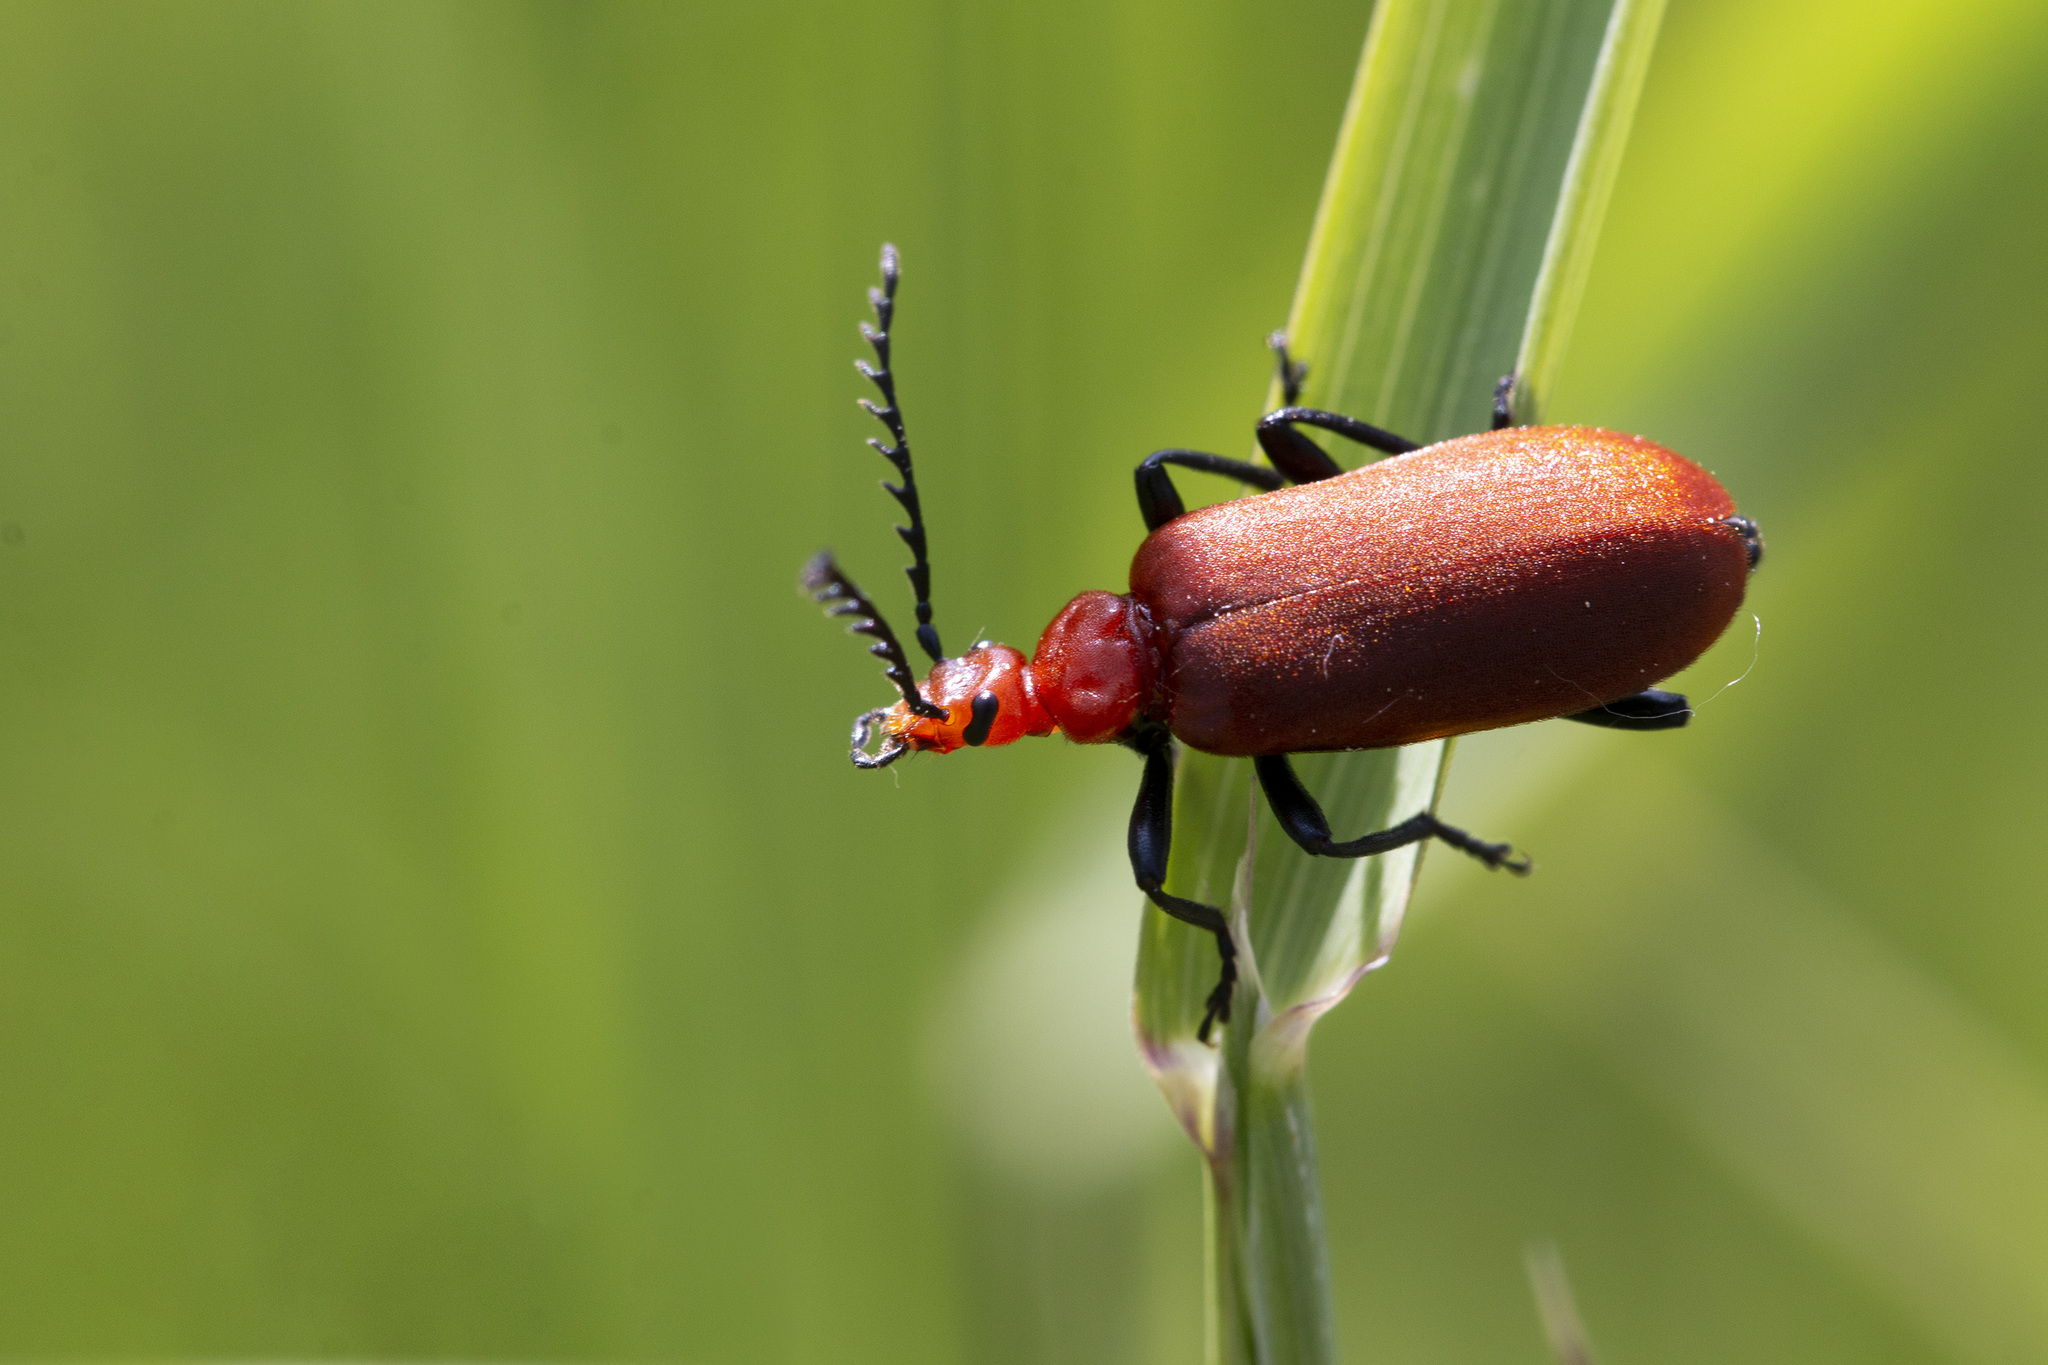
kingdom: Animalia
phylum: Arthropoda
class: Insecta
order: Coleoptera
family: Pyrochroidae
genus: Pyrochroa
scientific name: Pyrochroa serraticornis
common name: Red-headed cardinal beetle
